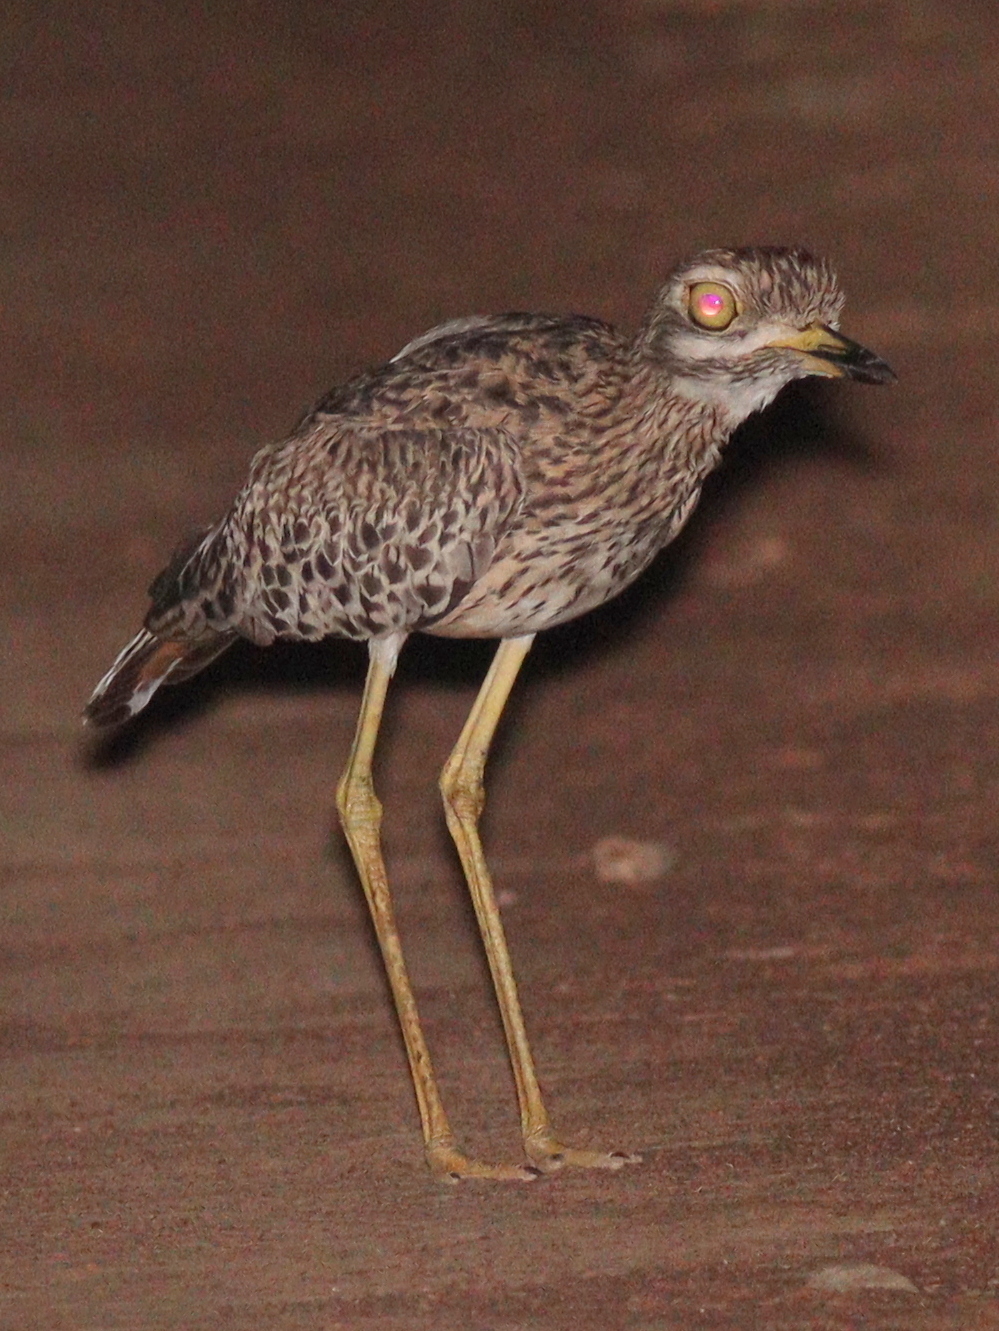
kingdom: Animalia
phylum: Chordata
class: Aves
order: Charadriiformes
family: Burhinidae
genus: Burhinus
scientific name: Burhinus capensis
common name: Spotted thick-knee
